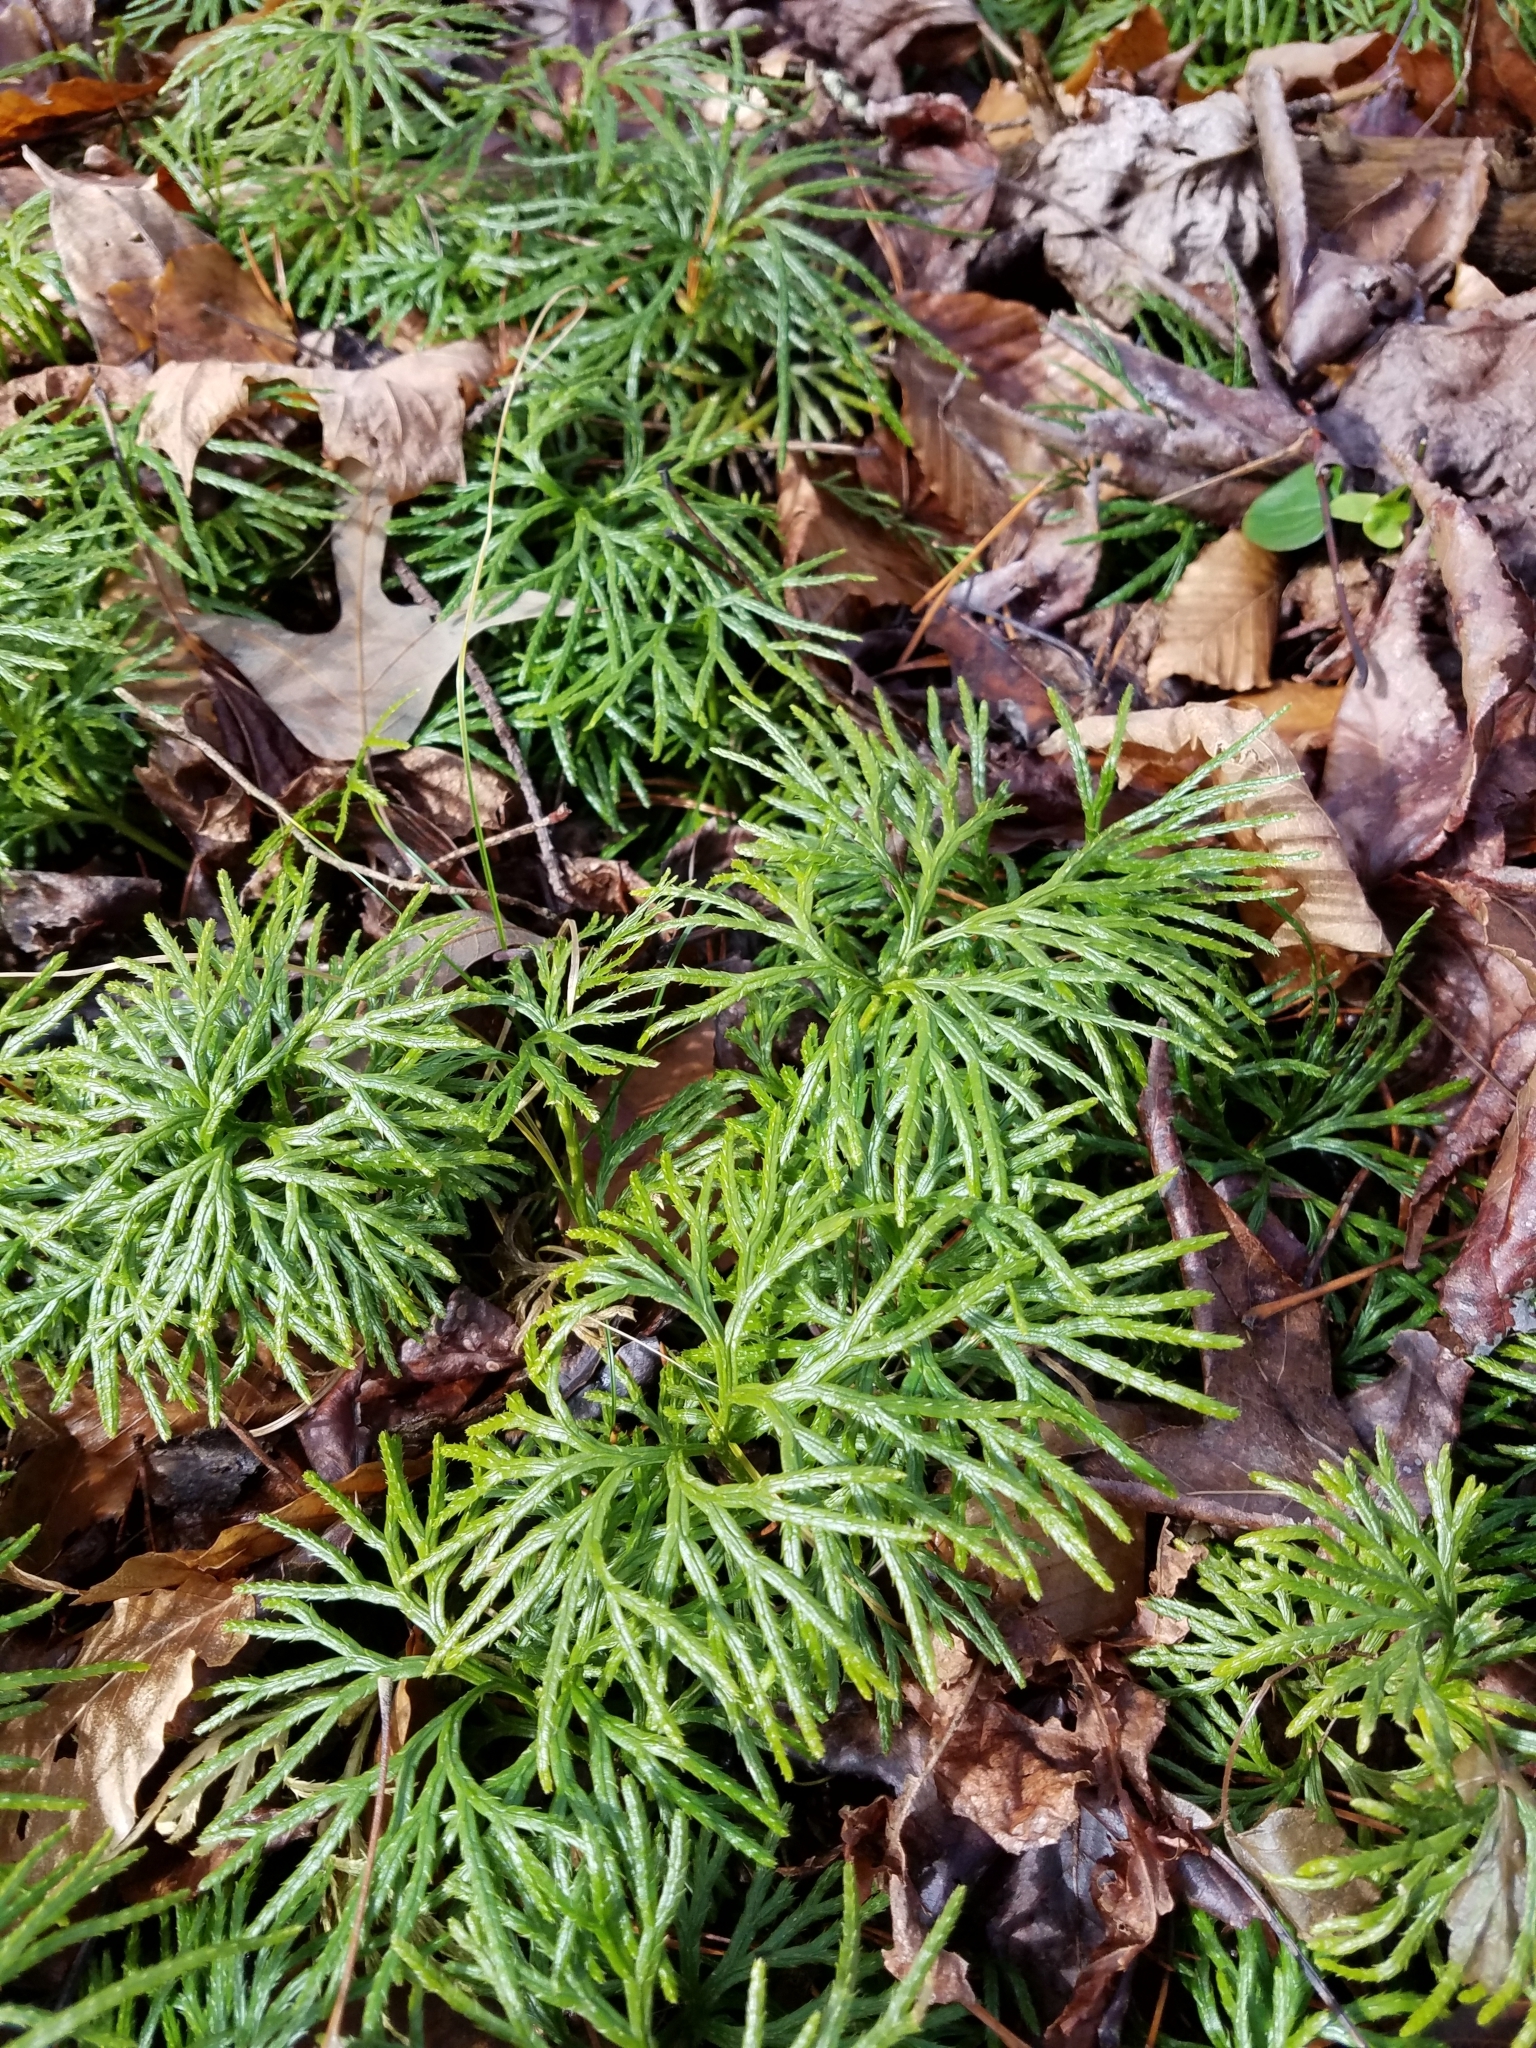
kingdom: Plantae
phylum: Tracheophyta
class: Lycopodiopsida
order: Lycopodiales
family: Lycopodiaceae
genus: Diphasiastrum
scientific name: Diphasiastrum digitatum
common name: Southern running-pine
